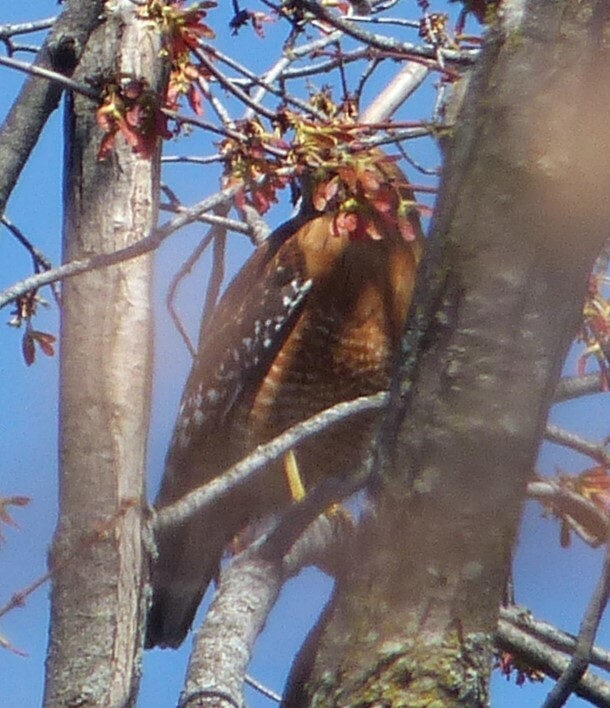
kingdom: Animalia
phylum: Chordata
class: Aves
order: Accipitriformes
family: Accipitridae
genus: Buteo
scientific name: Buteo lineatus
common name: Red-shouldered hawk
